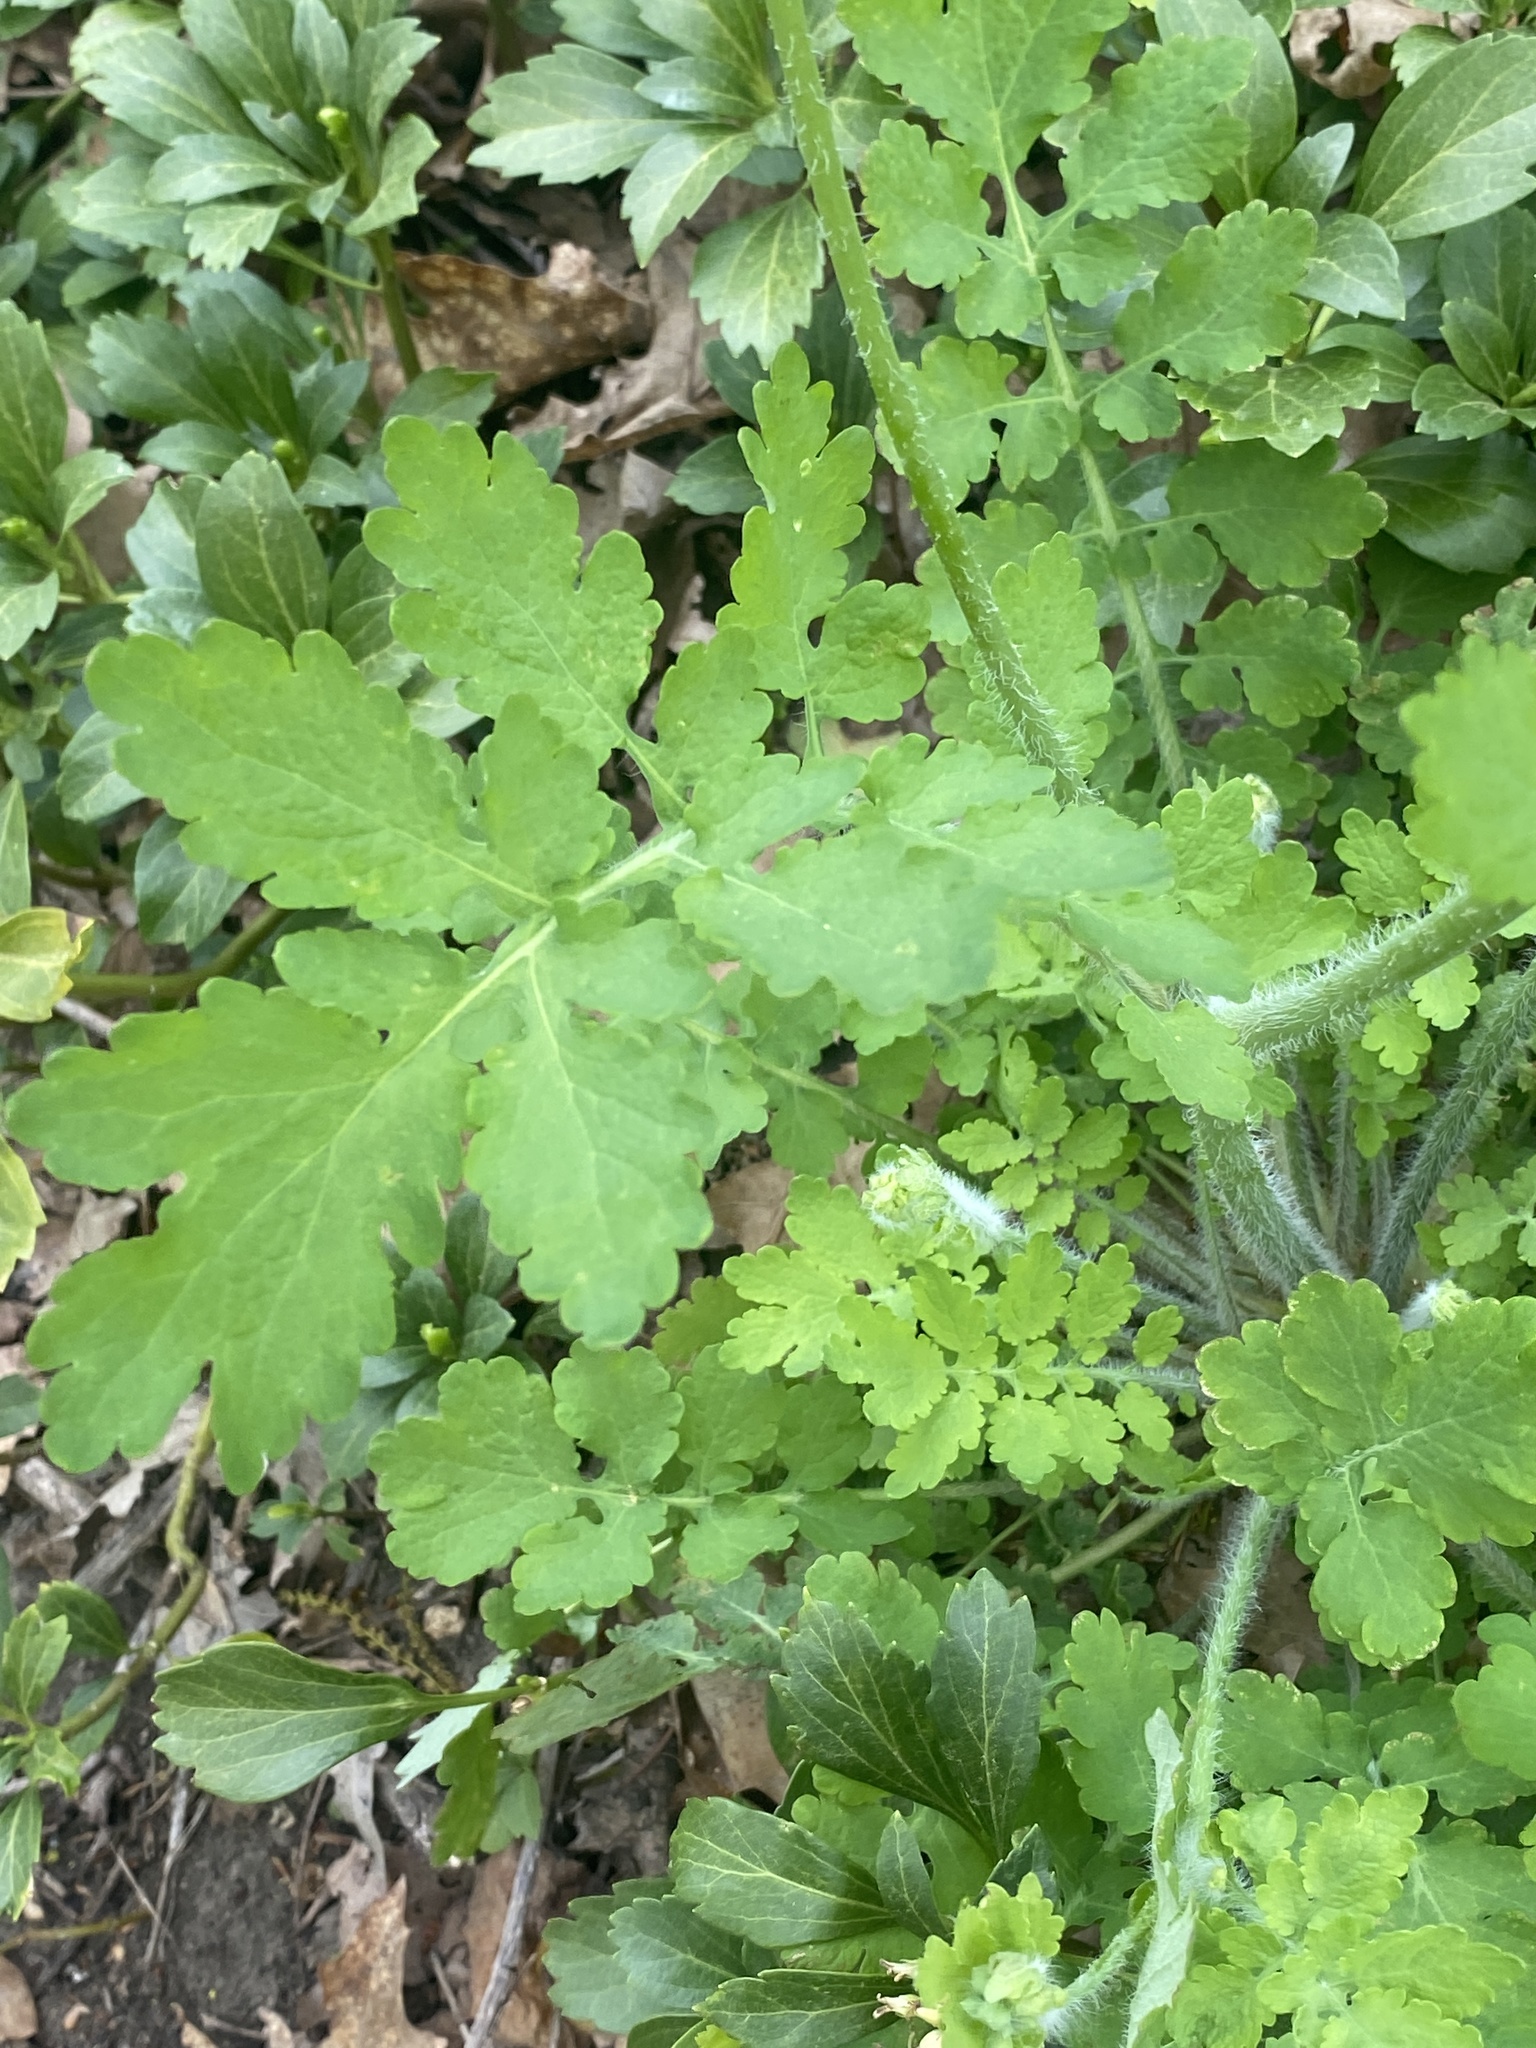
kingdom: Plantae
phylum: Tracheophyta
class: Magnoliopsida
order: Ranunculales
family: Papaveraceae
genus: Chelidonium
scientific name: Chelidonium majus
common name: Greater celandine
